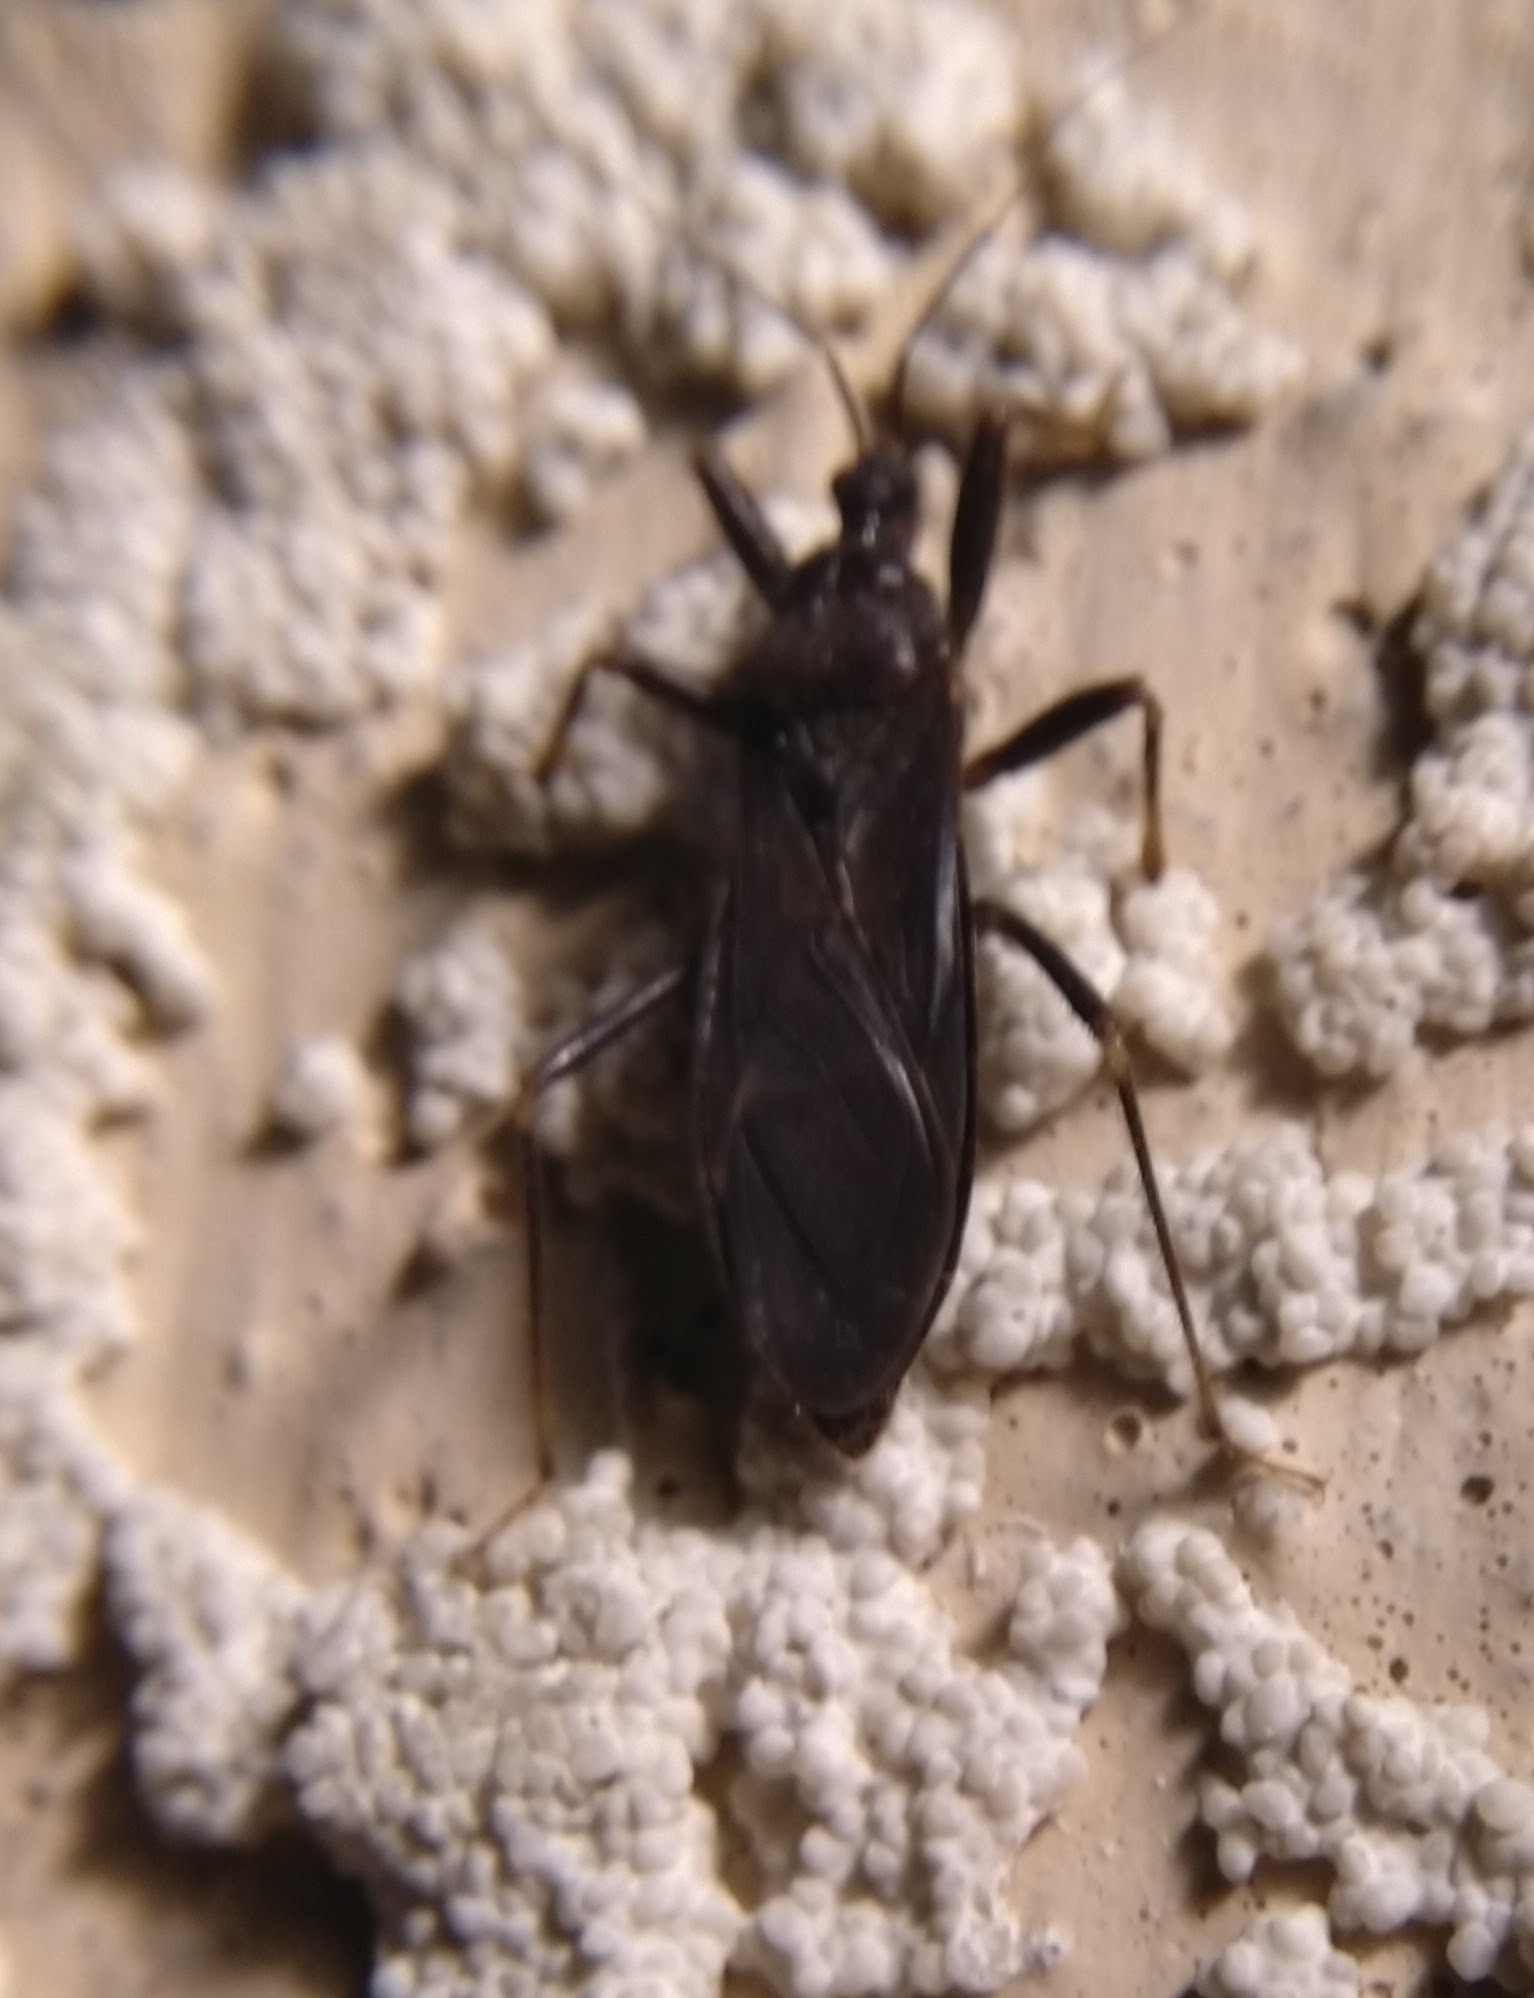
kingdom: Animalia
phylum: Arthropoda
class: Insecta
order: Hemiptera
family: Reduviidae
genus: Reduvius
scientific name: Reduvius personatus
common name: Masked hunter
